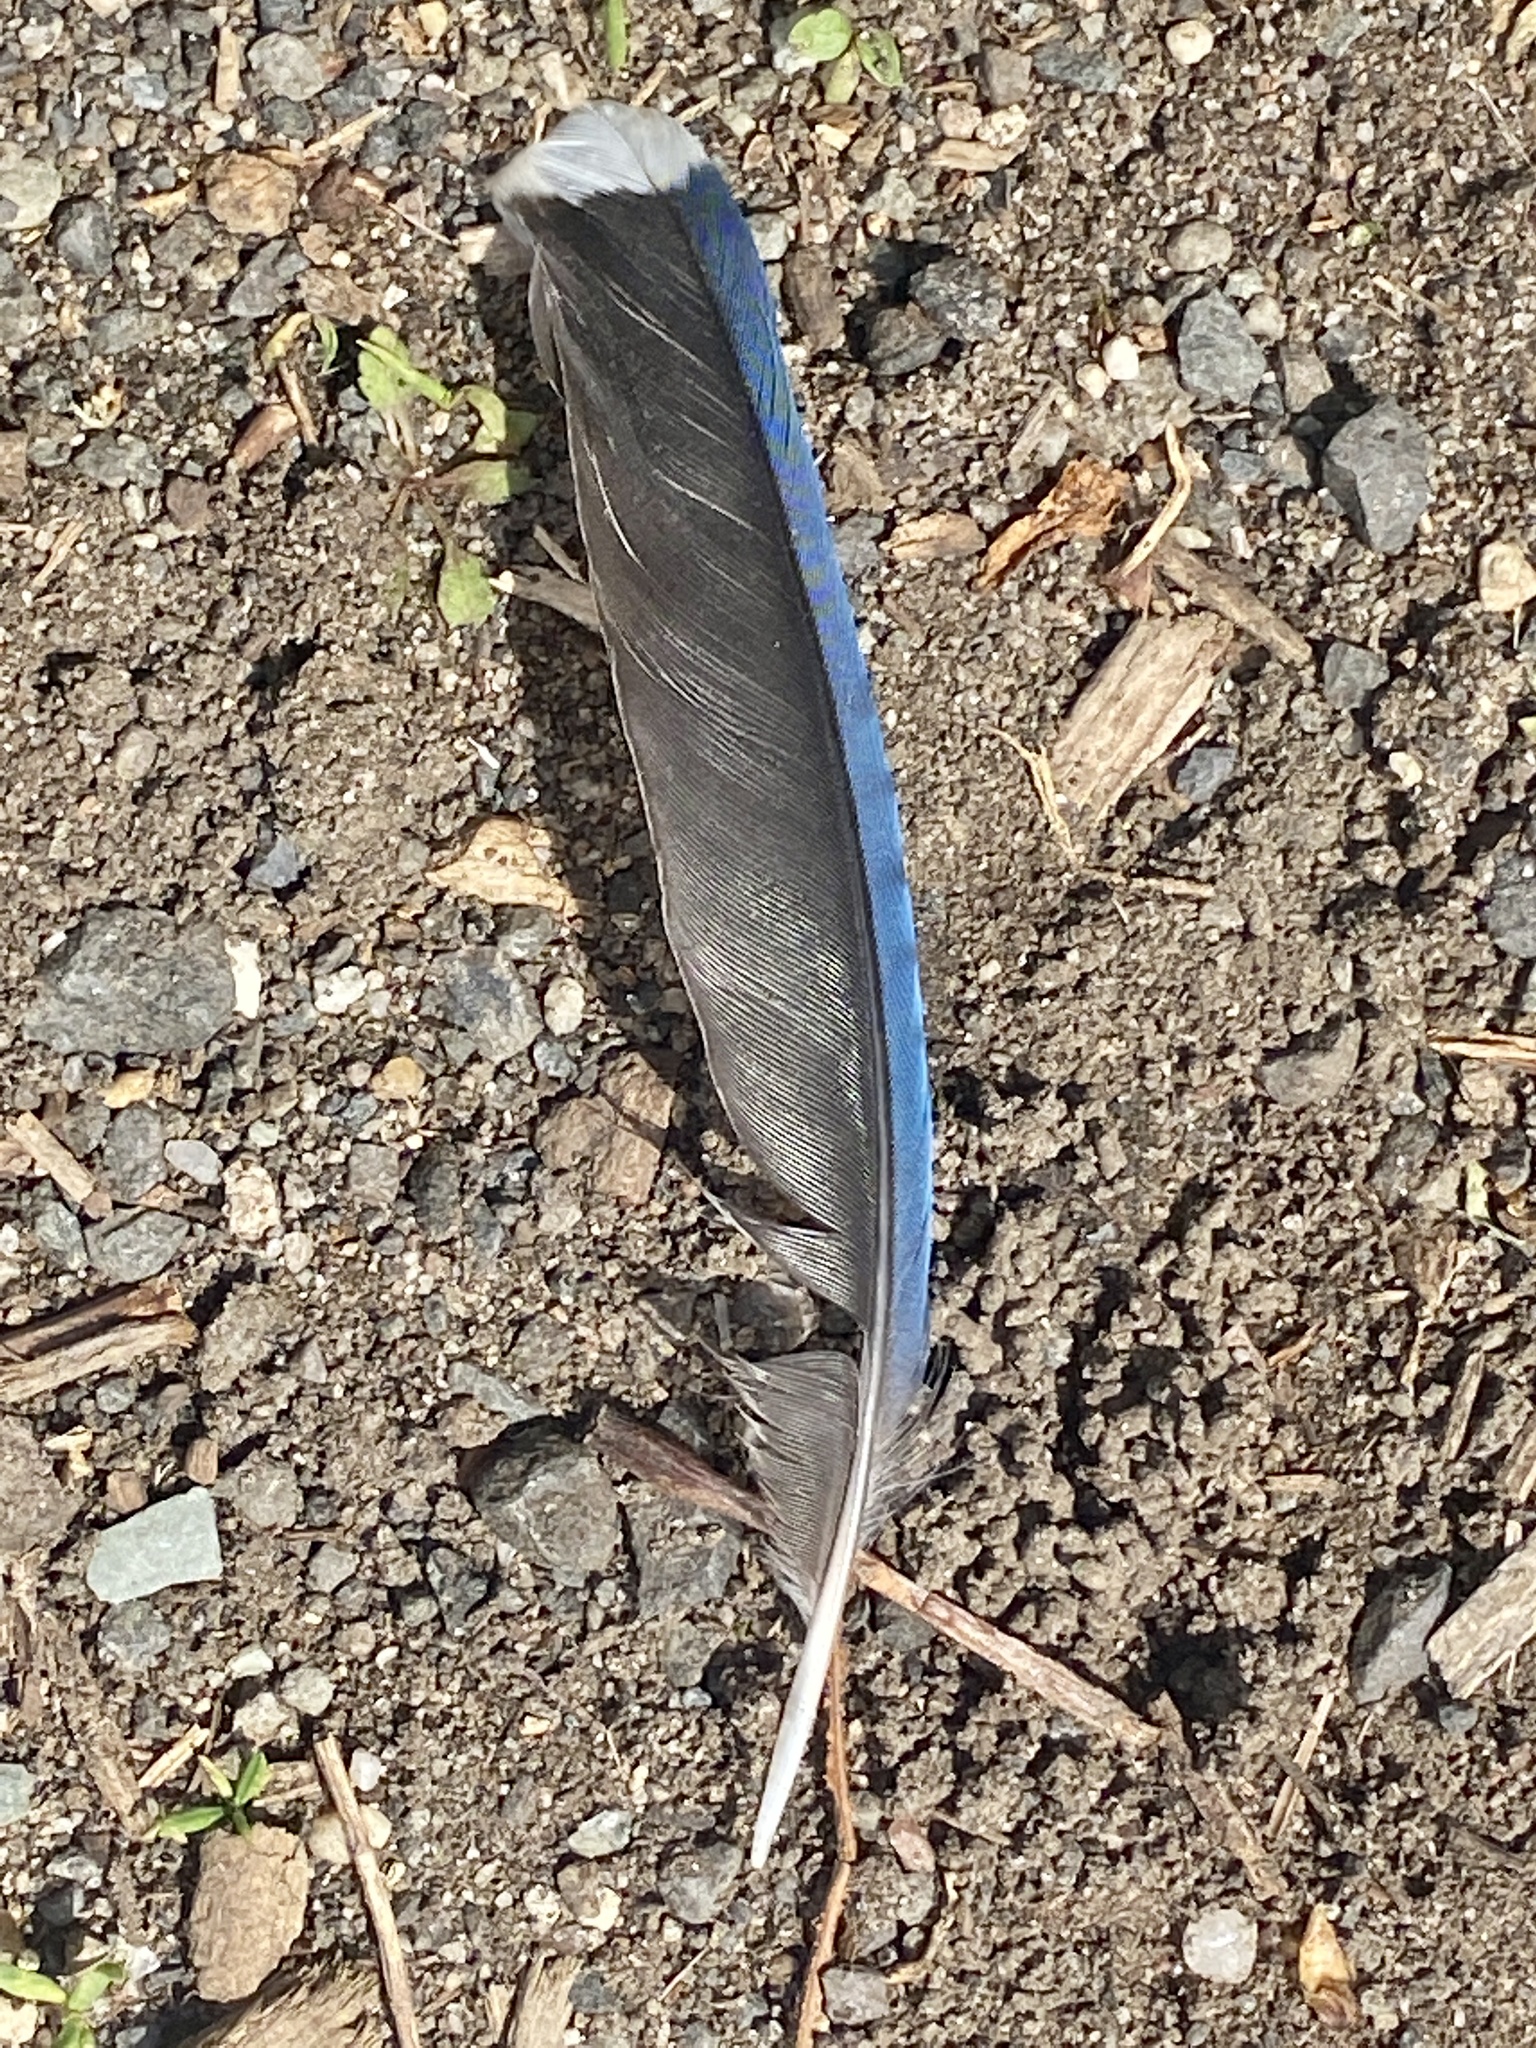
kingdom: Animalia
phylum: Chordata
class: Aves
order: Passeriformes
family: Corvidae
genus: Cyanocitta
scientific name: Cyanocitta cristata
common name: Blue jay
